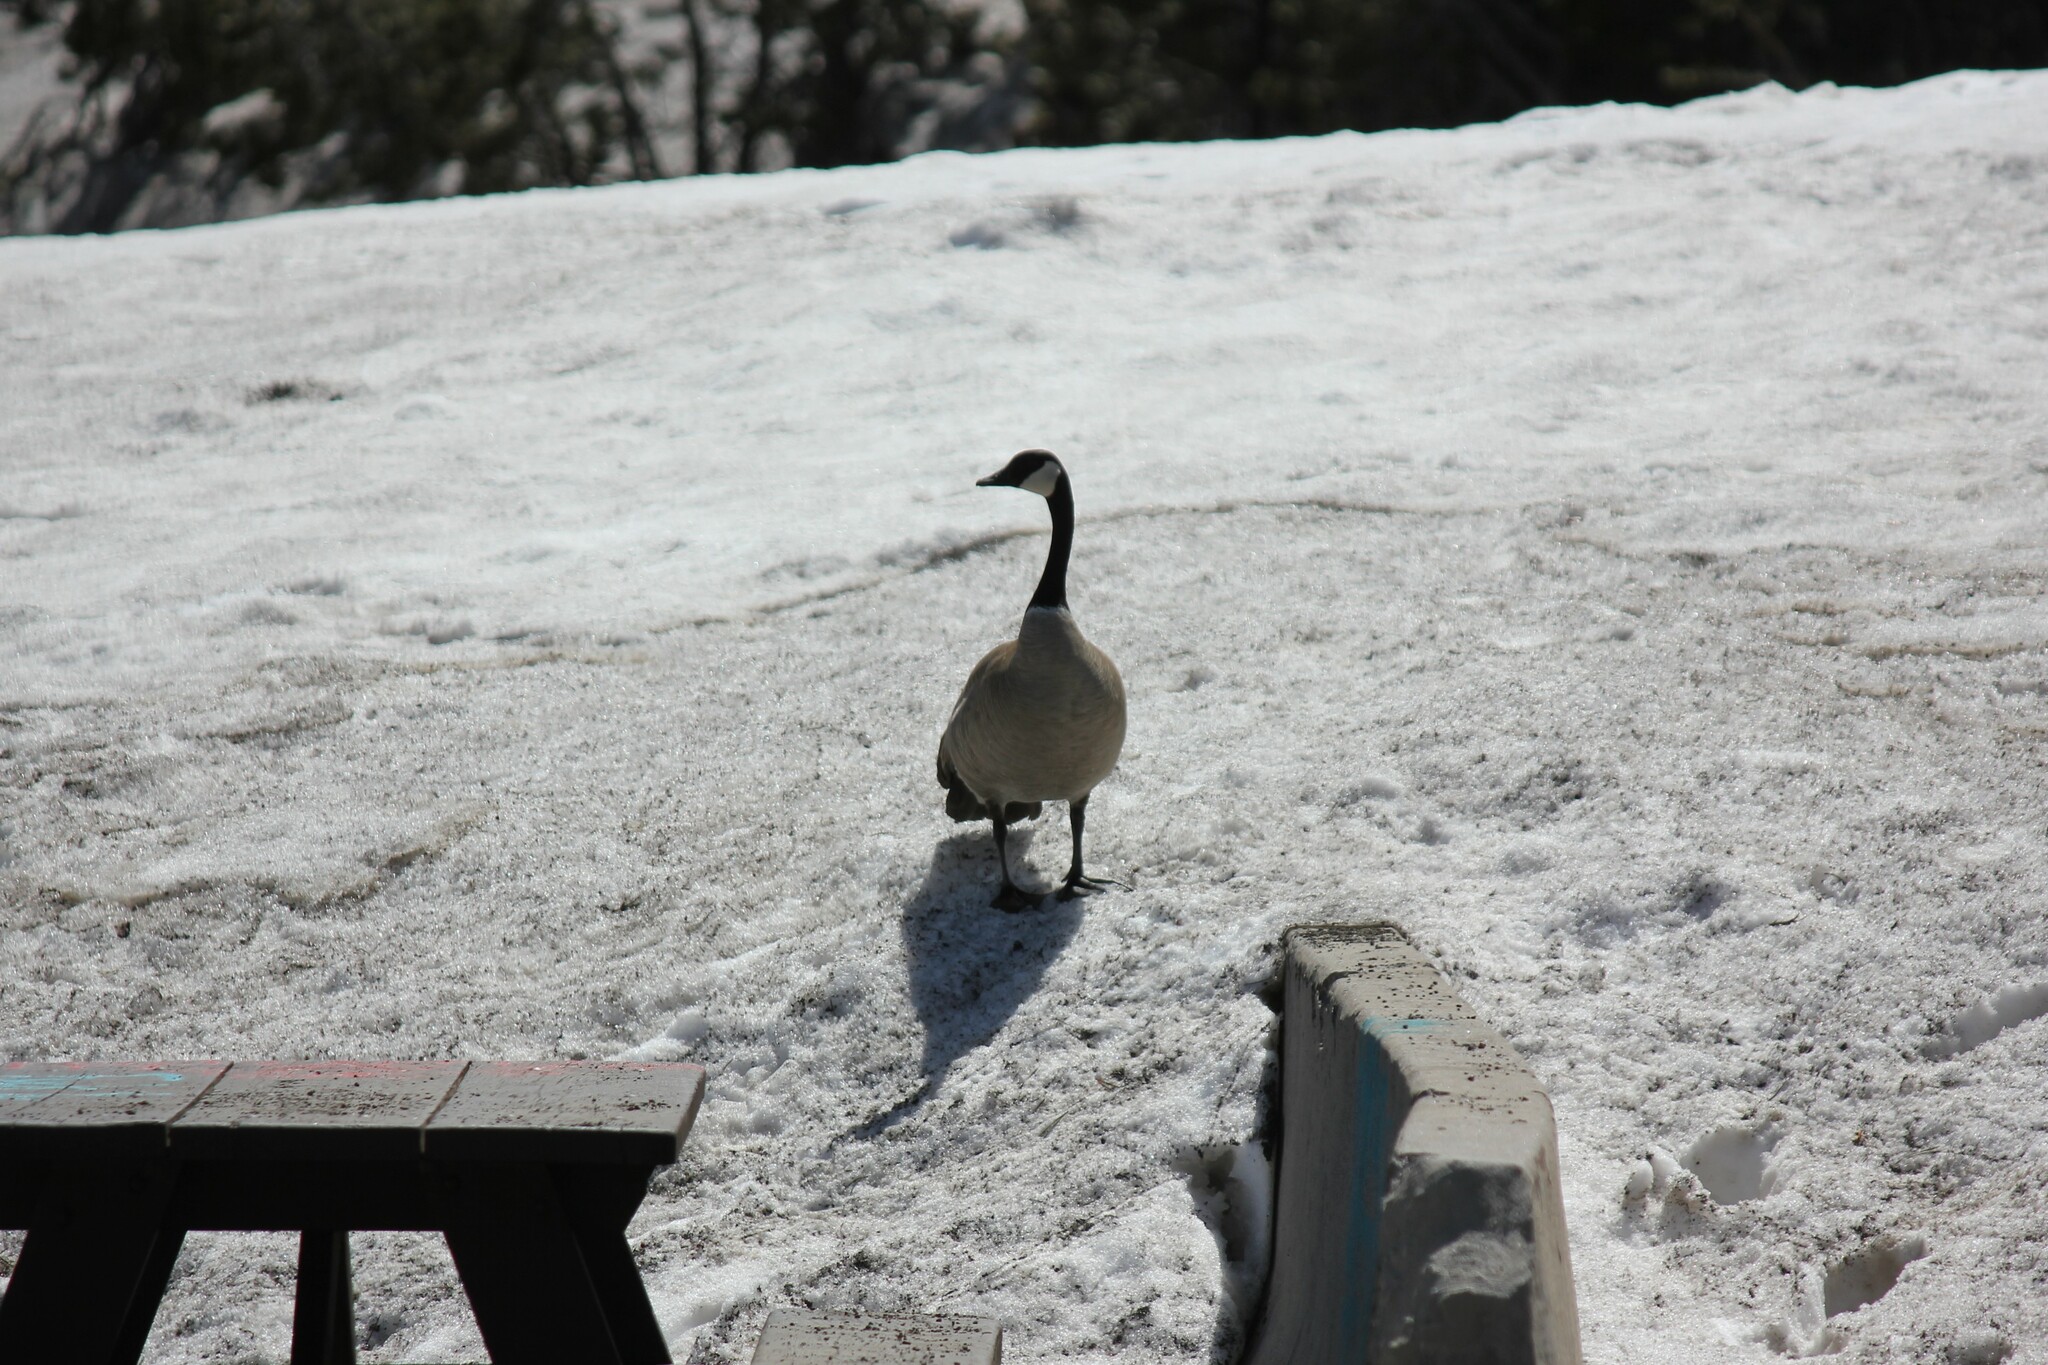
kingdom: Animalia
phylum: Chordata
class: Aves
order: Anseriformes
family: Anatidae
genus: Branta
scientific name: Branta canadensis
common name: Canada goose
